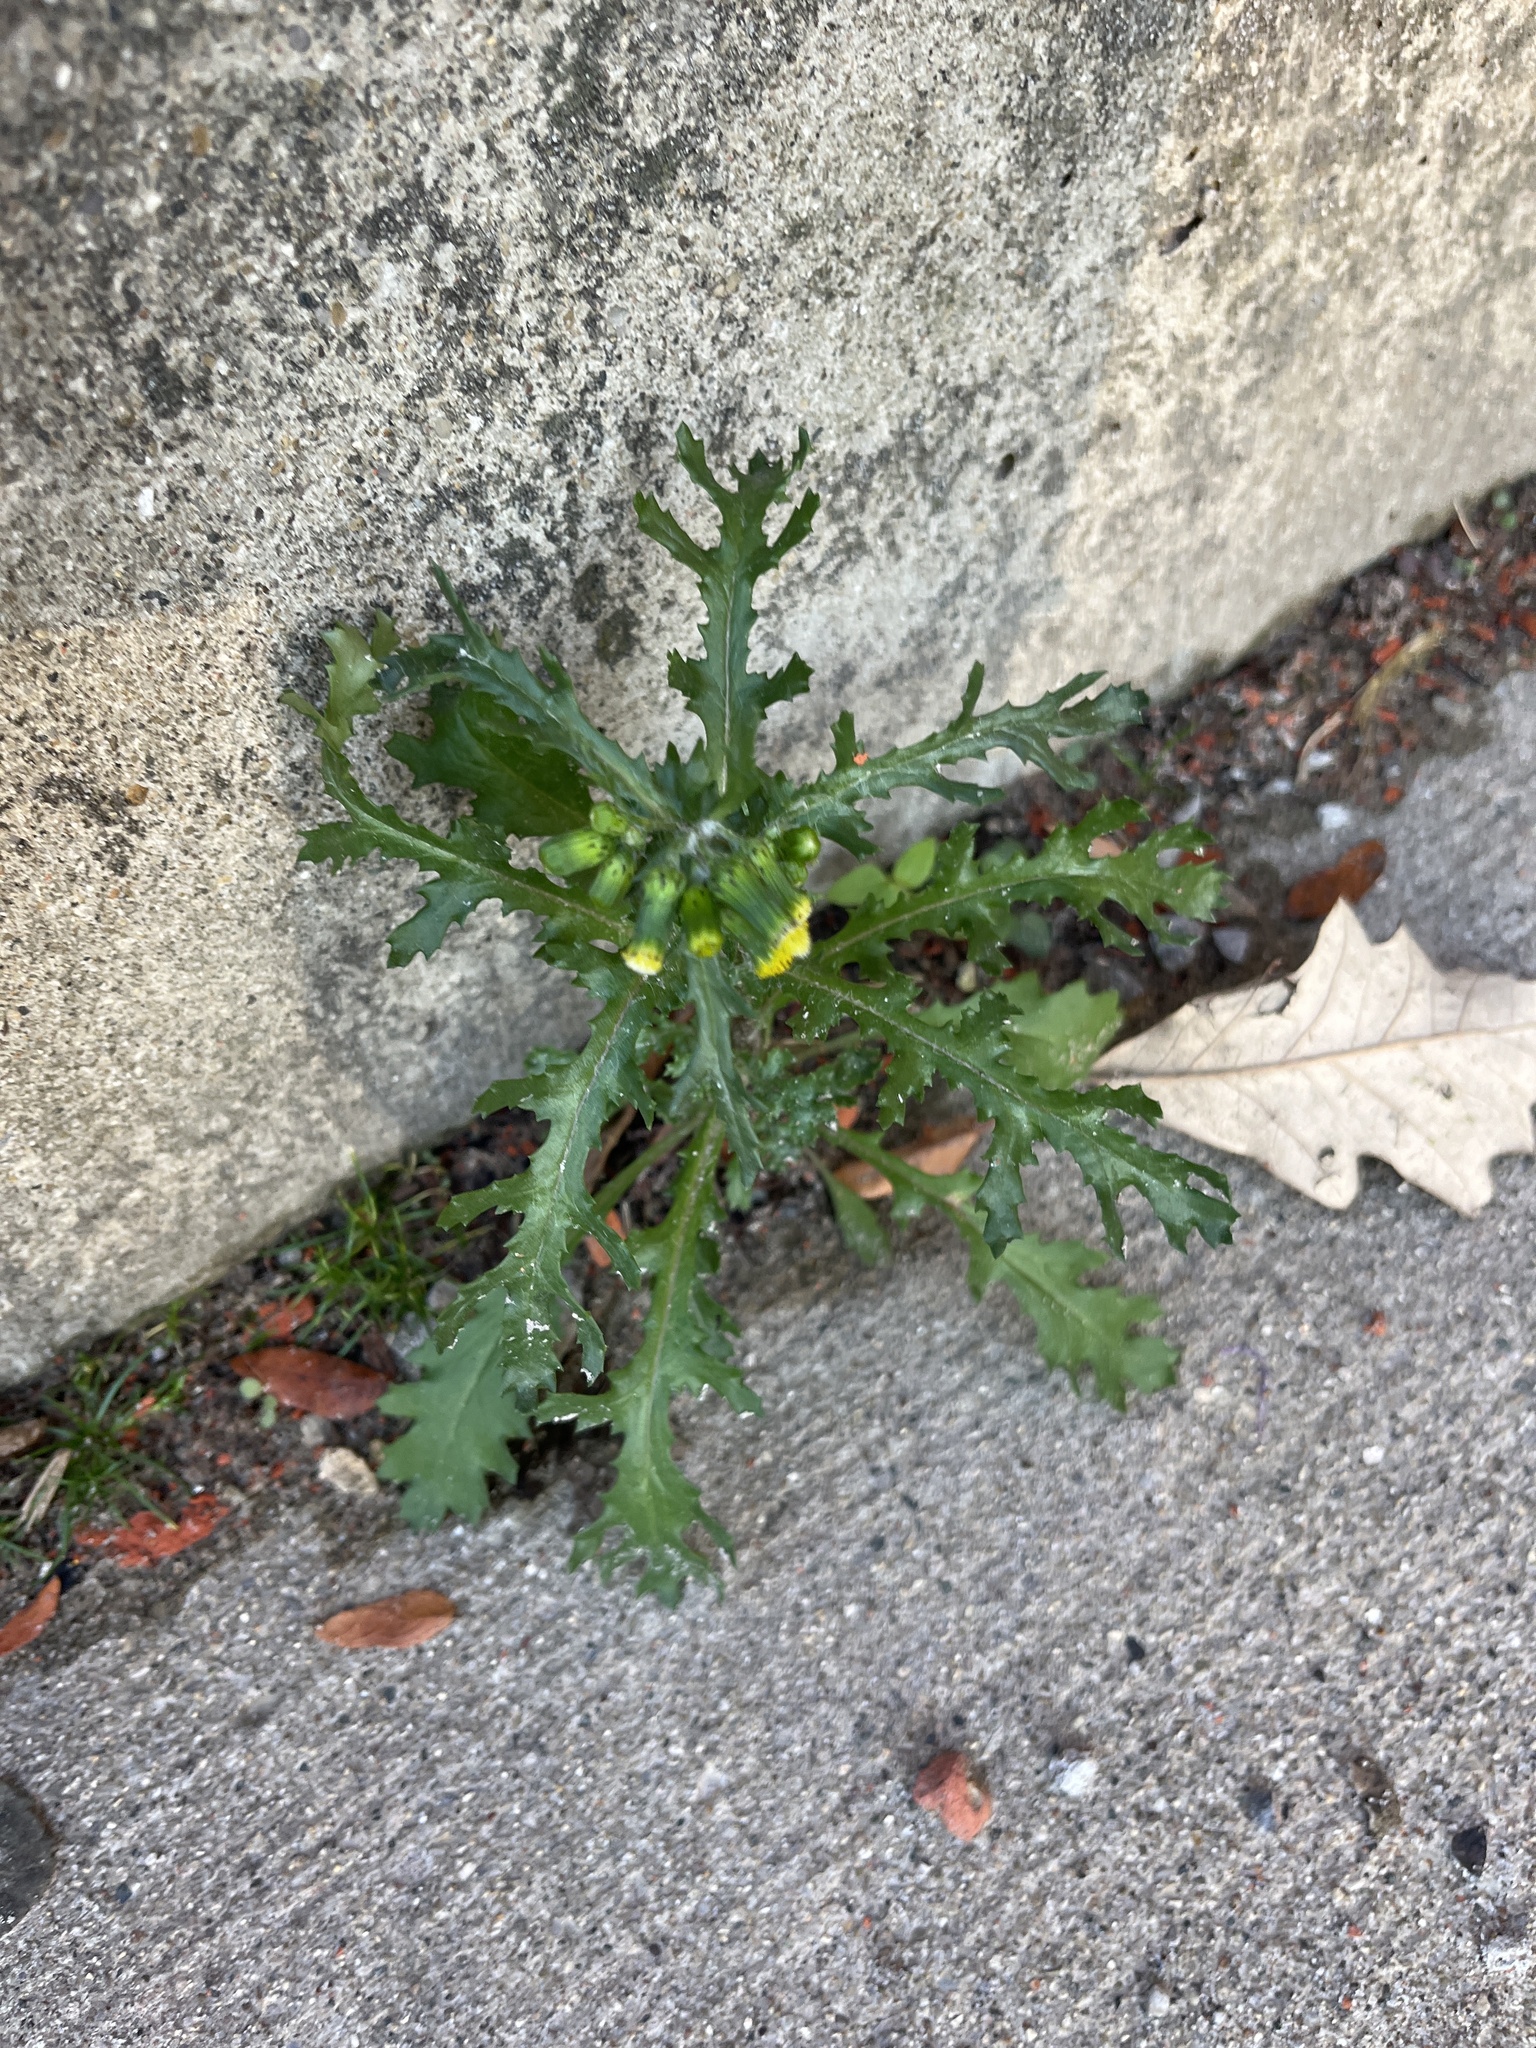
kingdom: Plantae
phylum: Tracheophyta
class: Magnoliopsida
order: Asterales
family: Asteraceae
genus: Senecio
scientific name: Senecio vulgaris
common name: Old-man-in-the-spring
